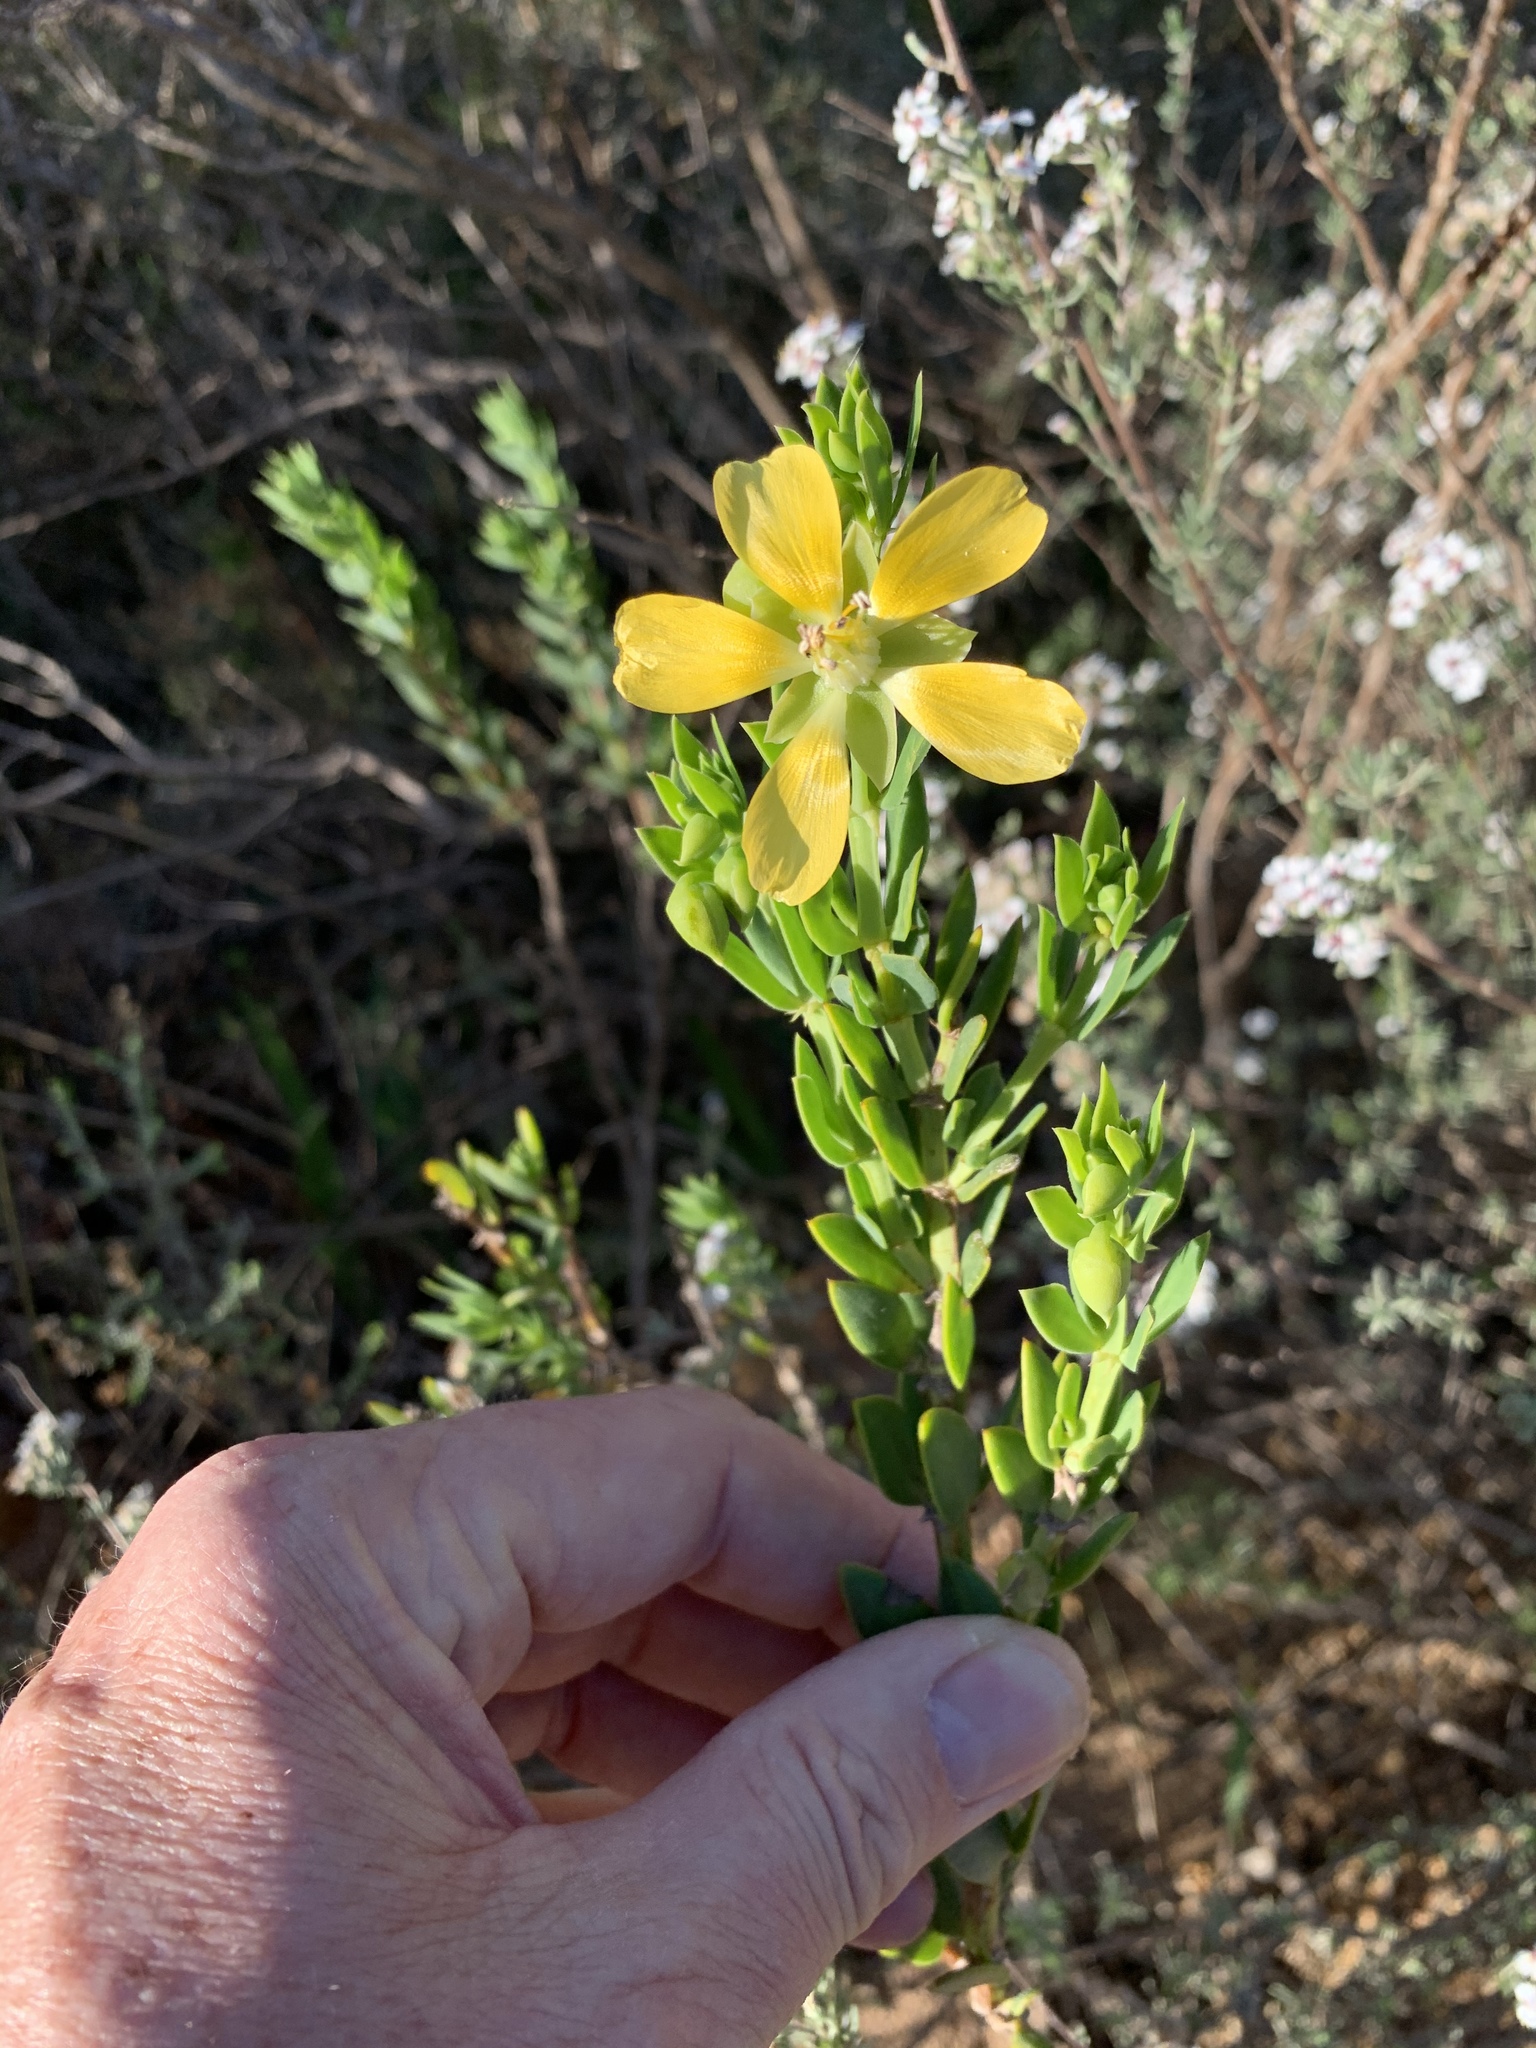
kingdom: Plantae
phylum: Tracheophyta
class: Magnoliopsida
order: Zygophyllales
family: Zygophyllaceae
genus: Roepera
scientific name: Roepera fulva
